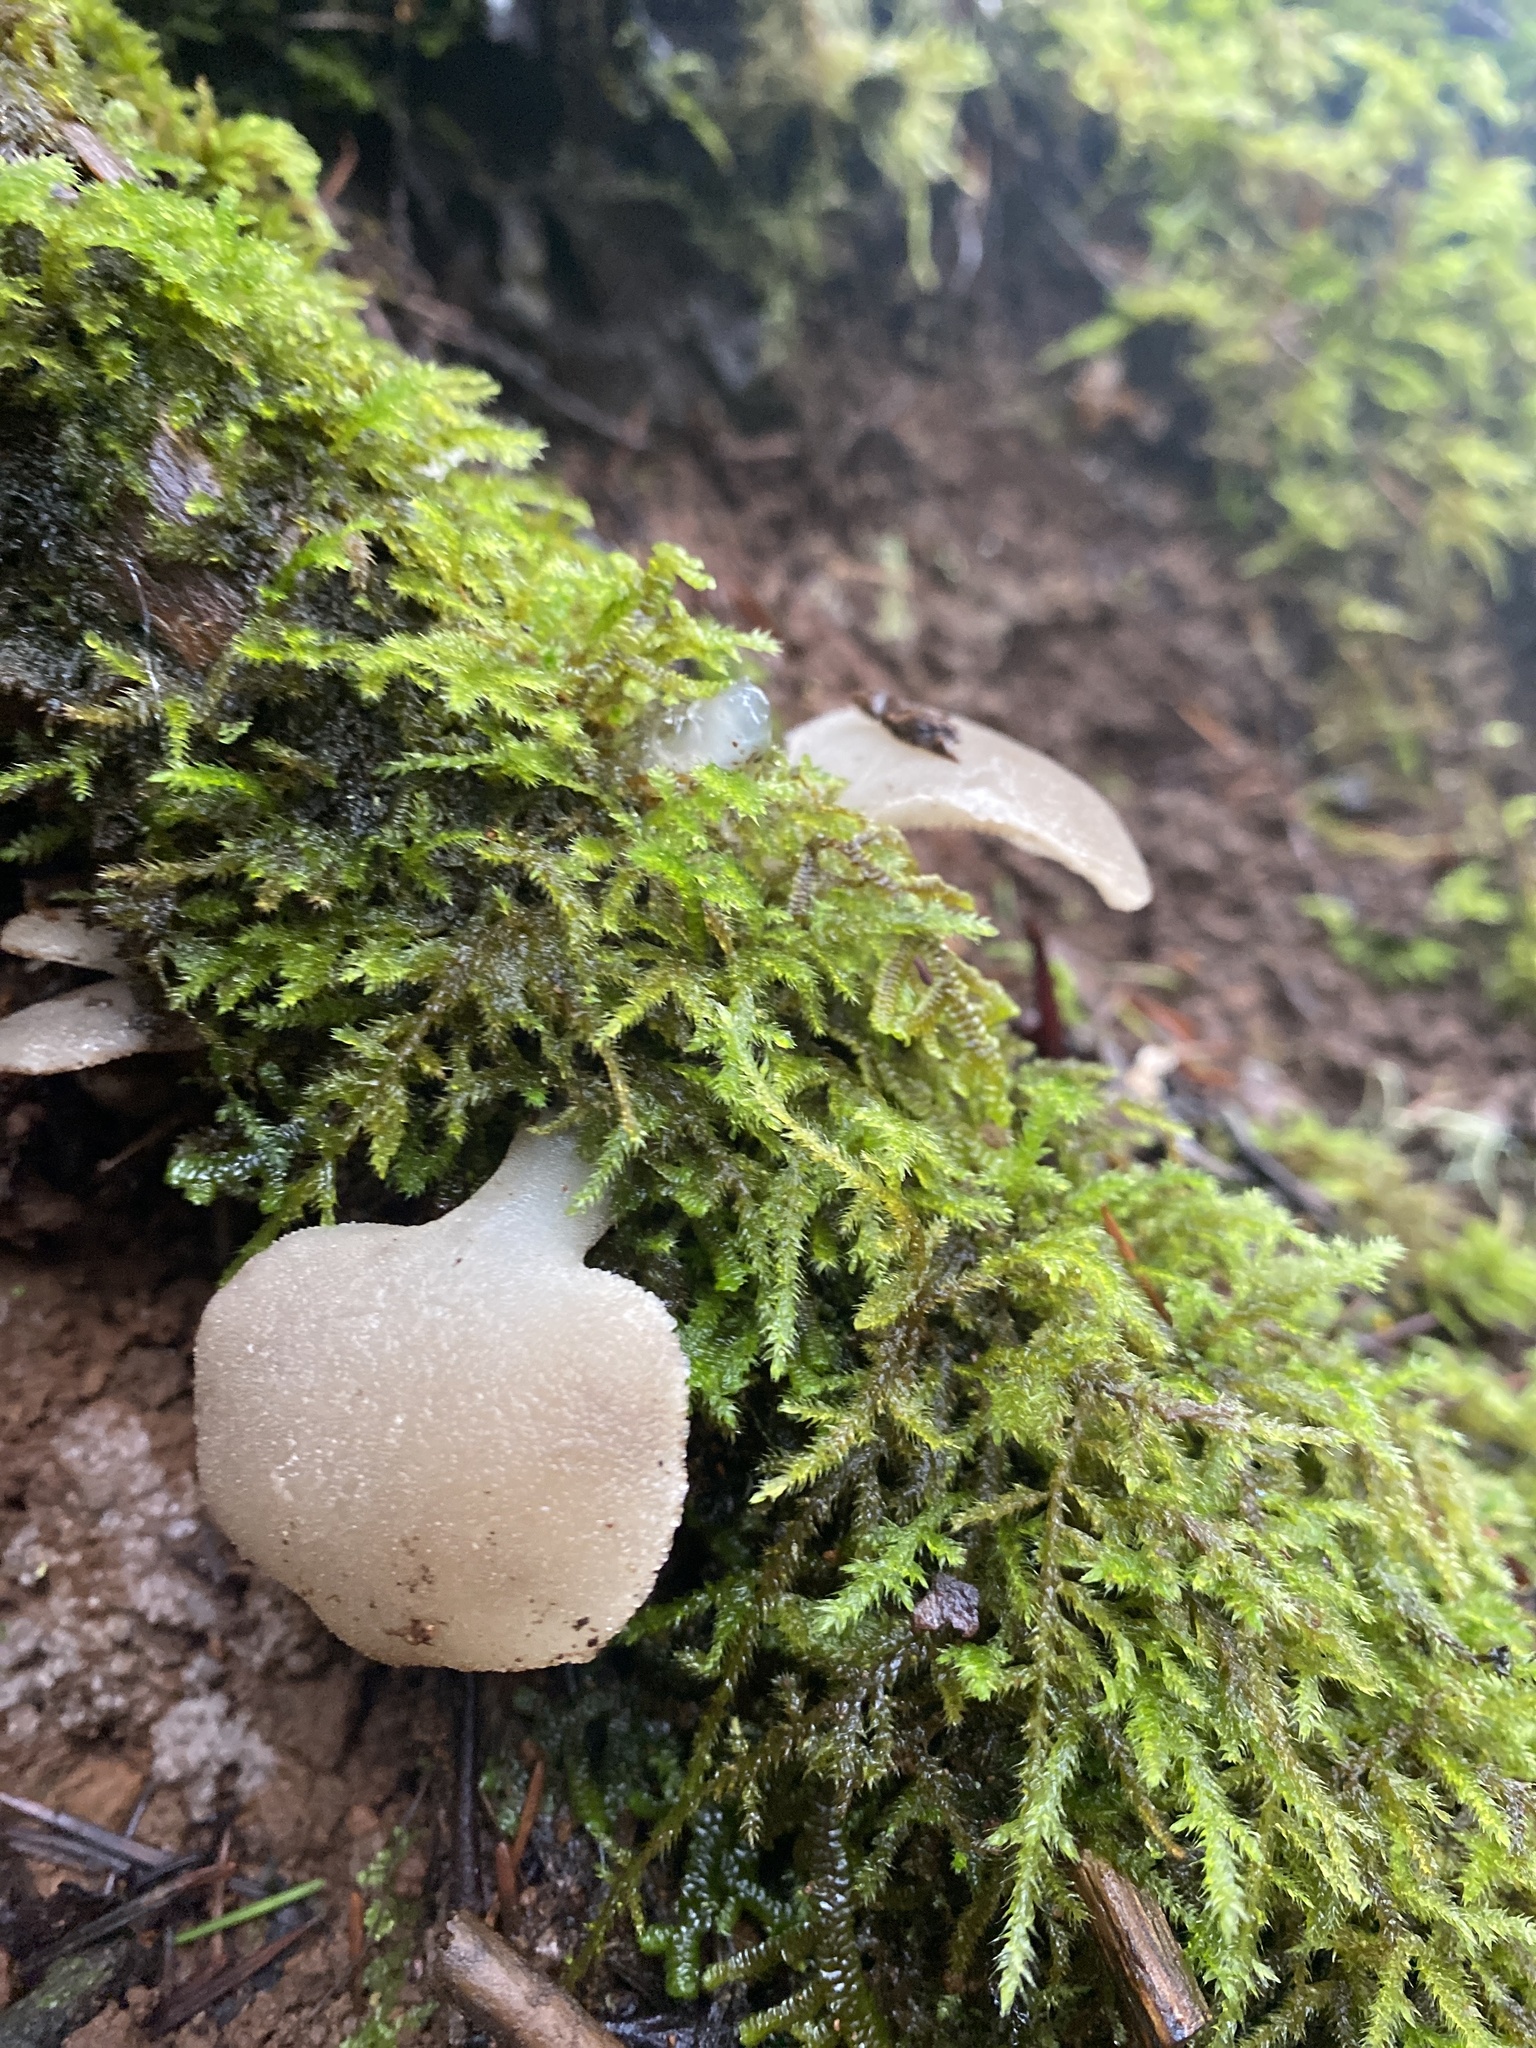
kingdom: Fungi
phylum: Basidiomycota
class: Agaricomycetes
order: Auriculariales
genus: Pseudohydnum
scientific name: Pseudohydnum gelatinosum
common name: Jelly tongue
